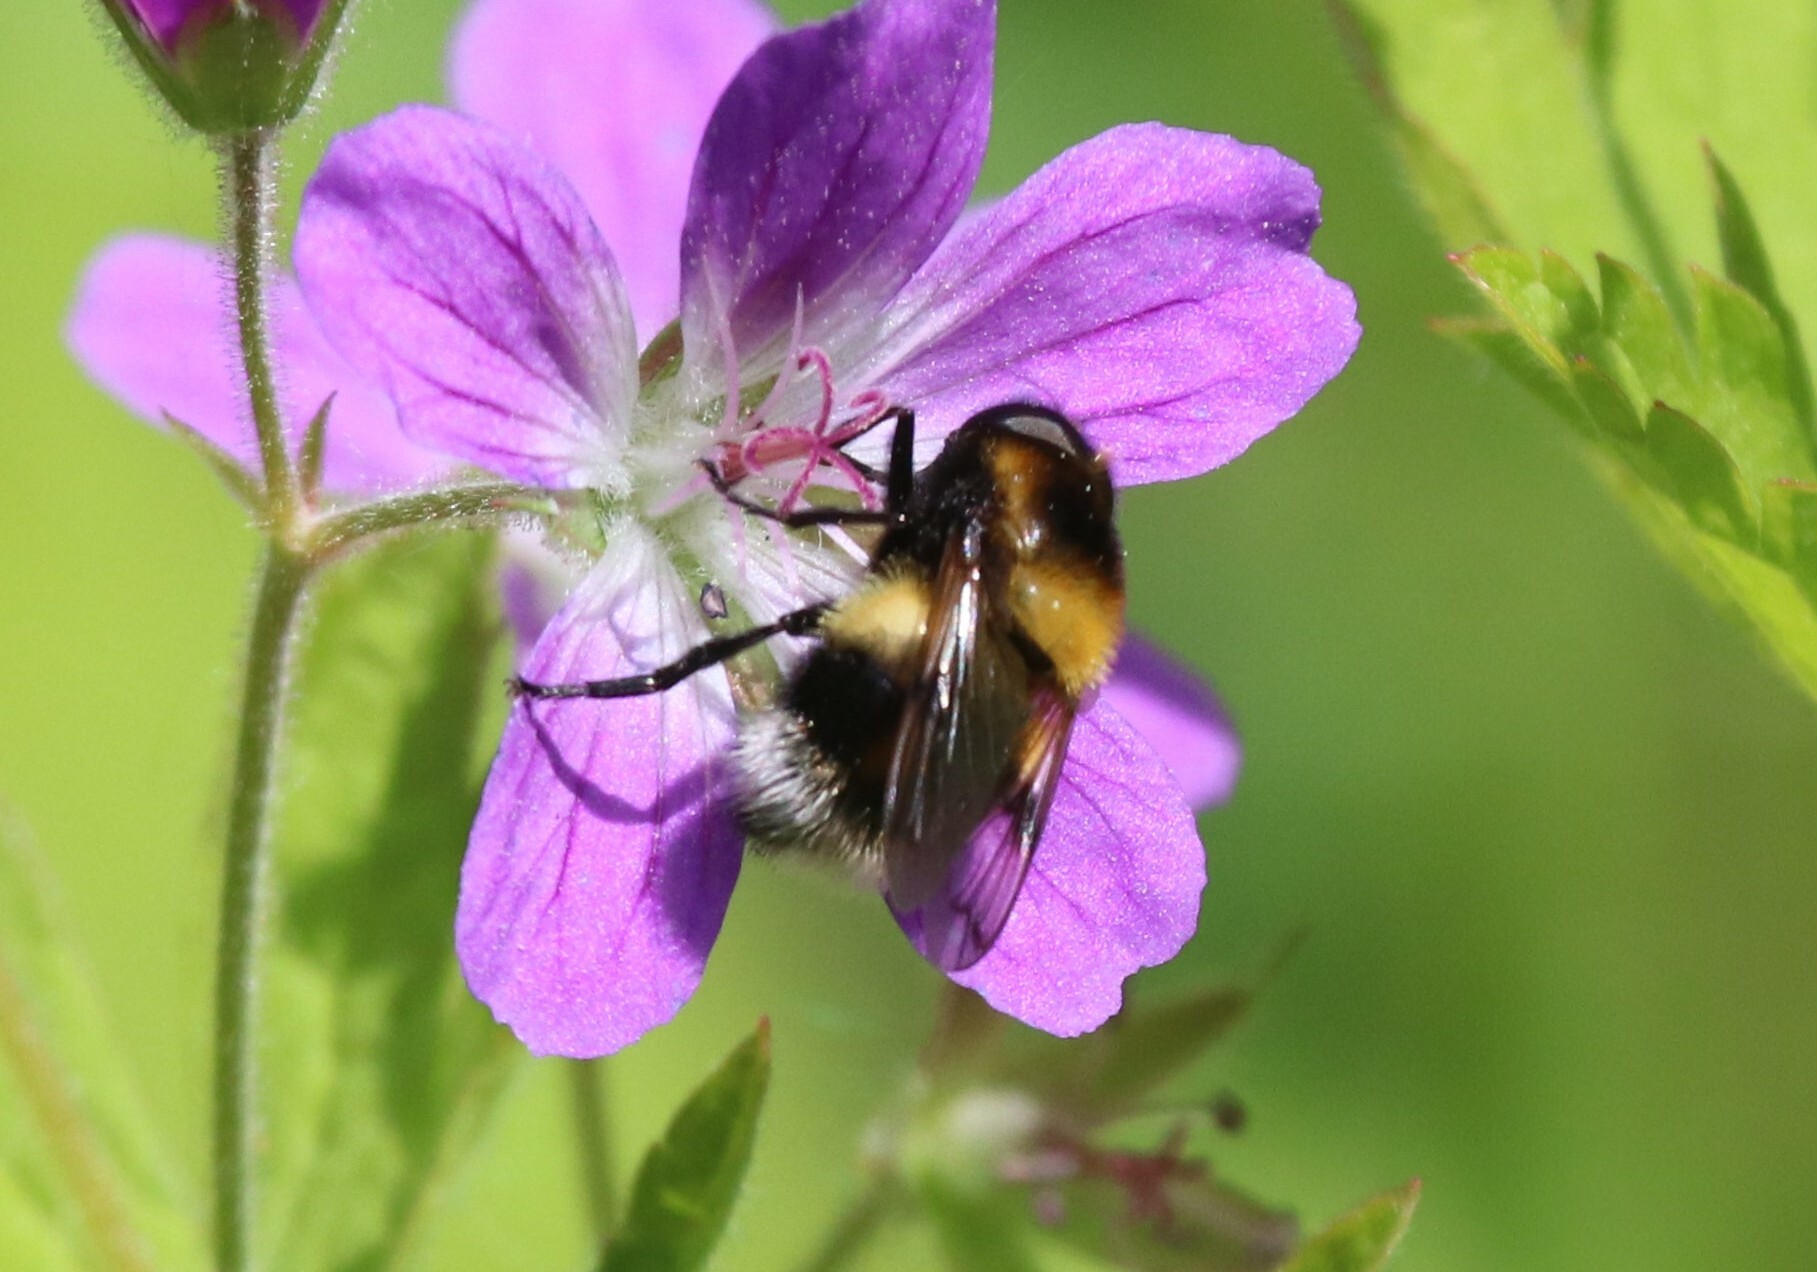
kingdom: Animalia
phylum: Arthropoda
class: Insecta
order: Diptera
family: Syrphidae
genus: Volucella
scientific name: Volucella bombylans
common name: Bumble bee hover fly
